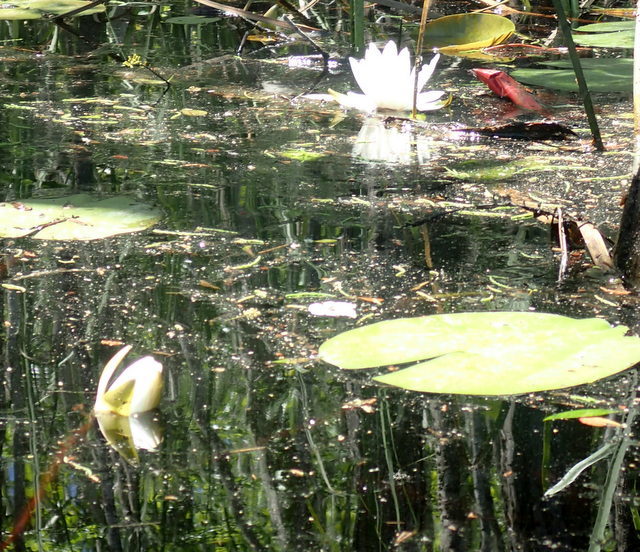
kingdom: Plantae
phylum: Tracheophyta
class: Magnoliopsida
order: Nymphaeales
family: Nymphaeaceae
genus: Nymphaea
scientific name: Nymphaea odorata
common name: Fragrant water-lily
